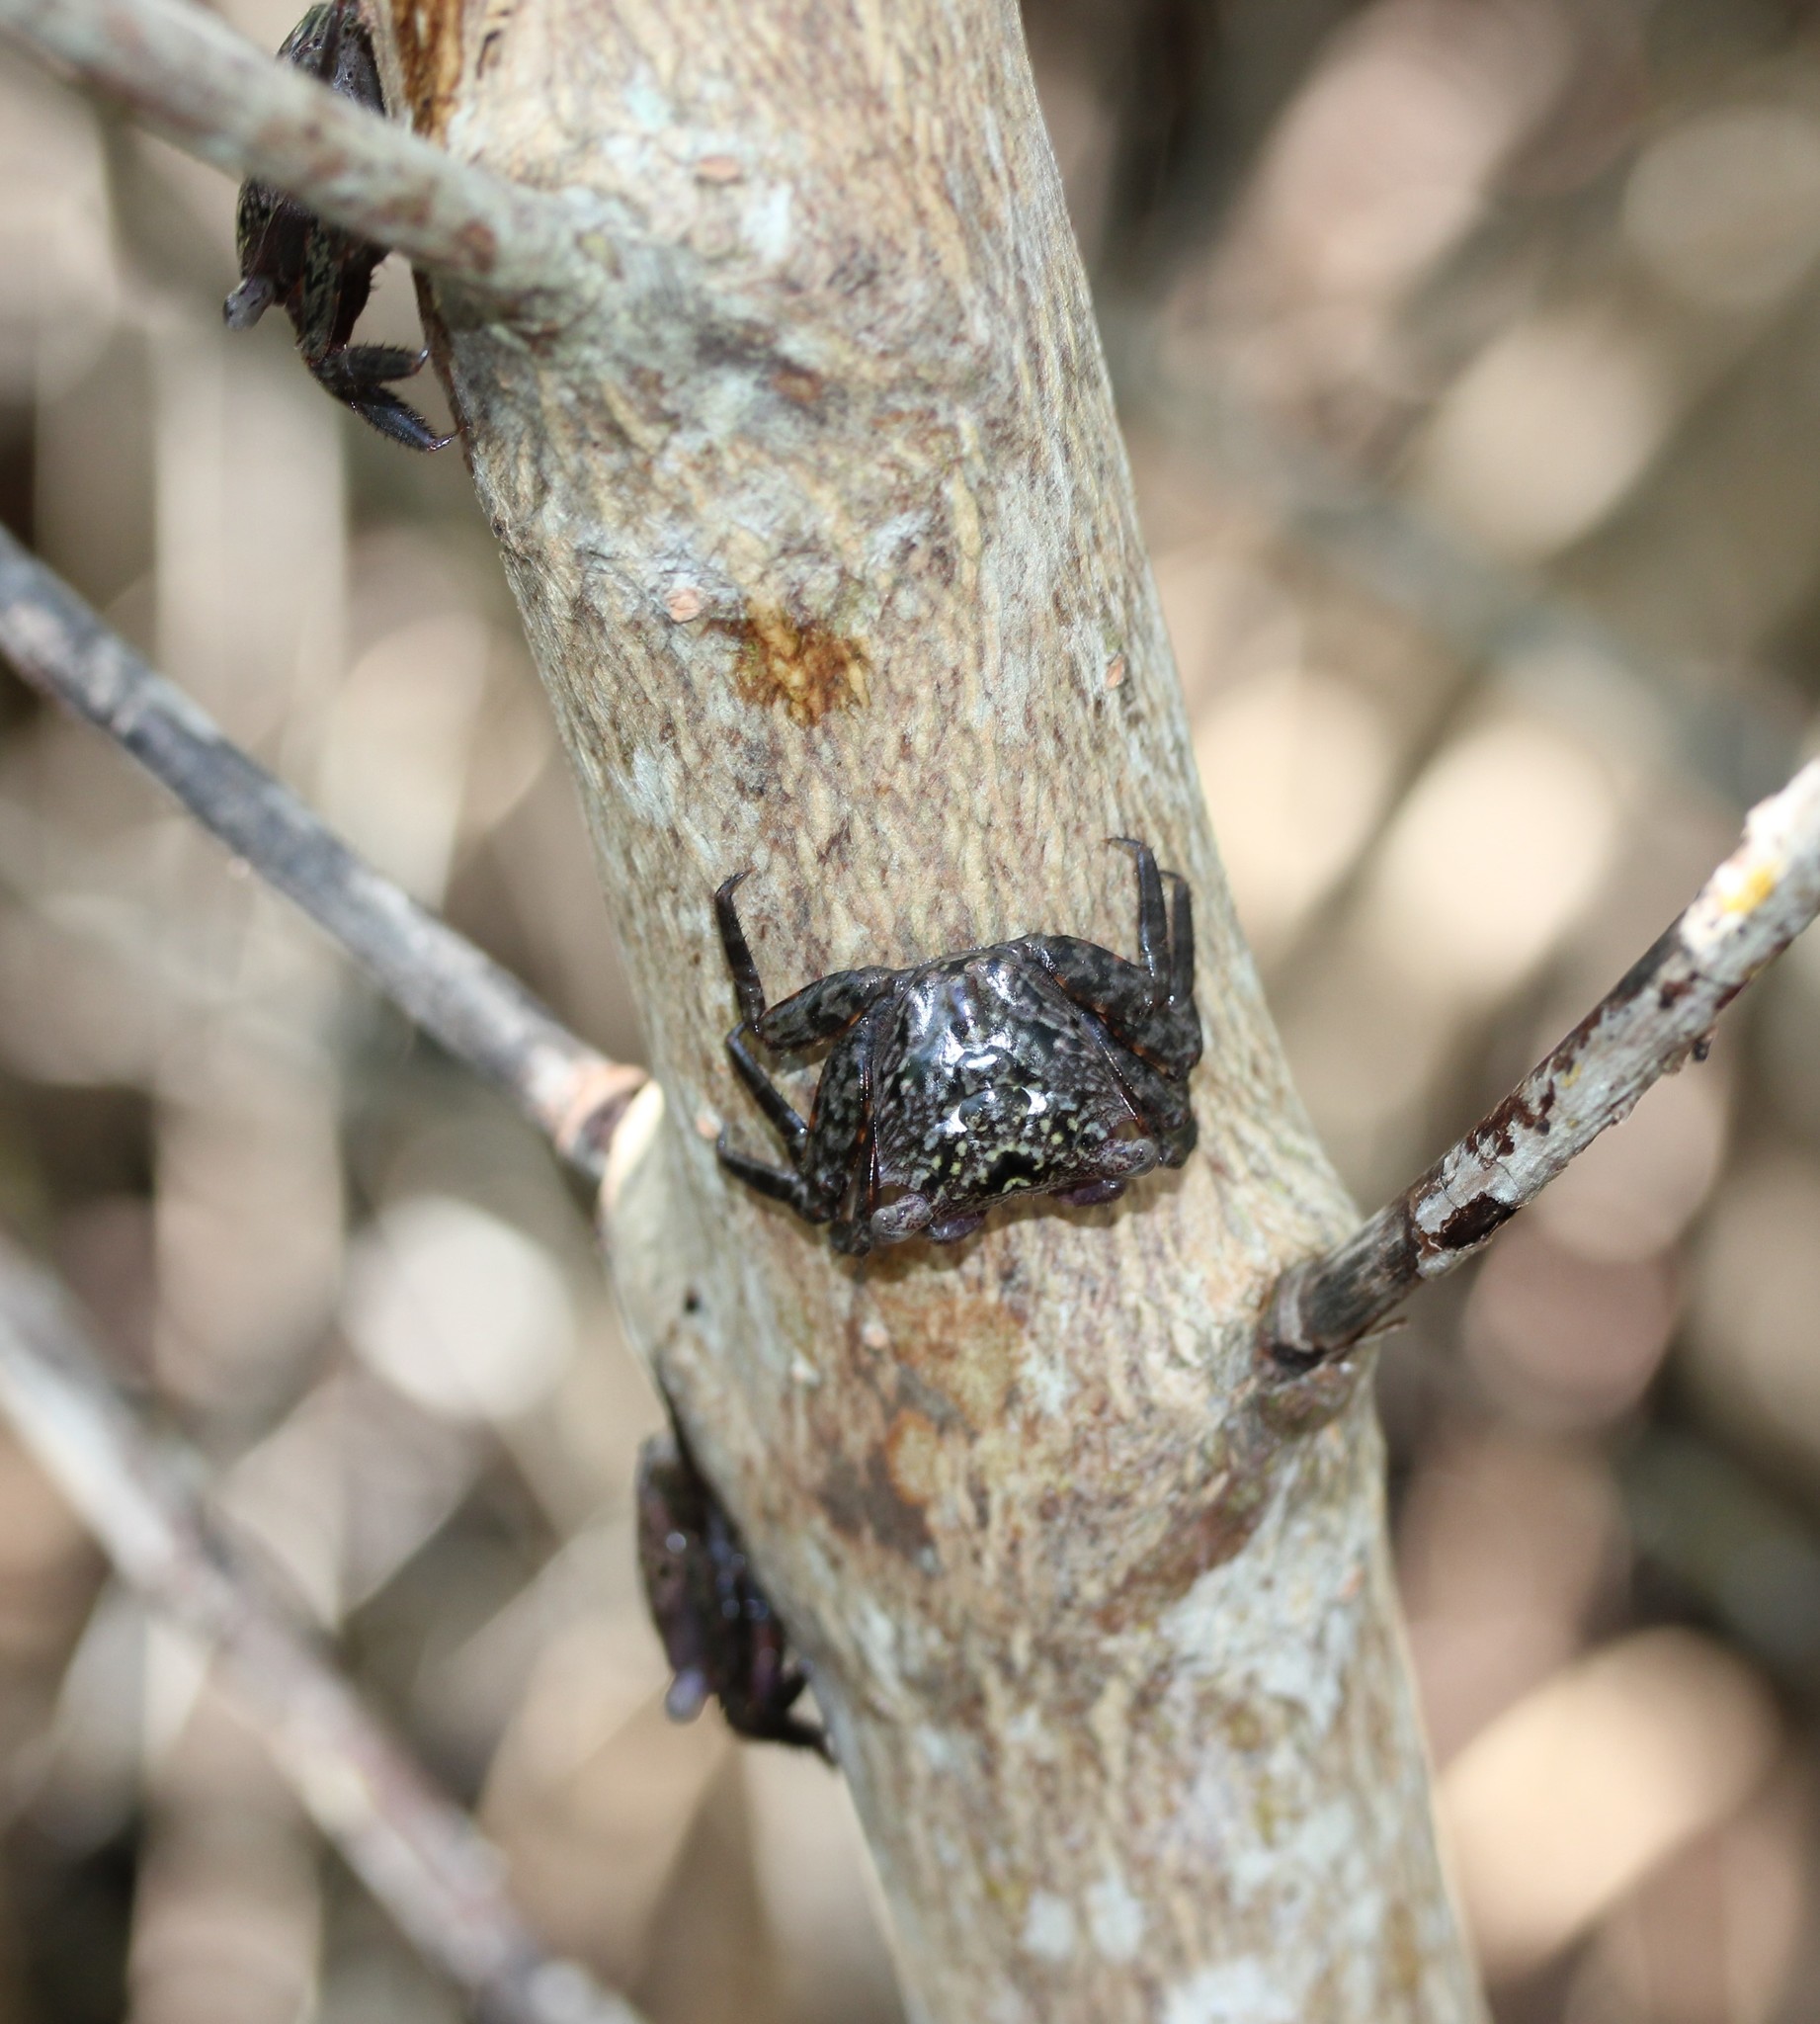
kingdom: Animalia
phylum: Arthropoda
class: Malacostraca
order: Decapoda
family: Sesarmidae
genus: Aratus
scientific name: Aratus pisonii
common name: Mangrove crab
